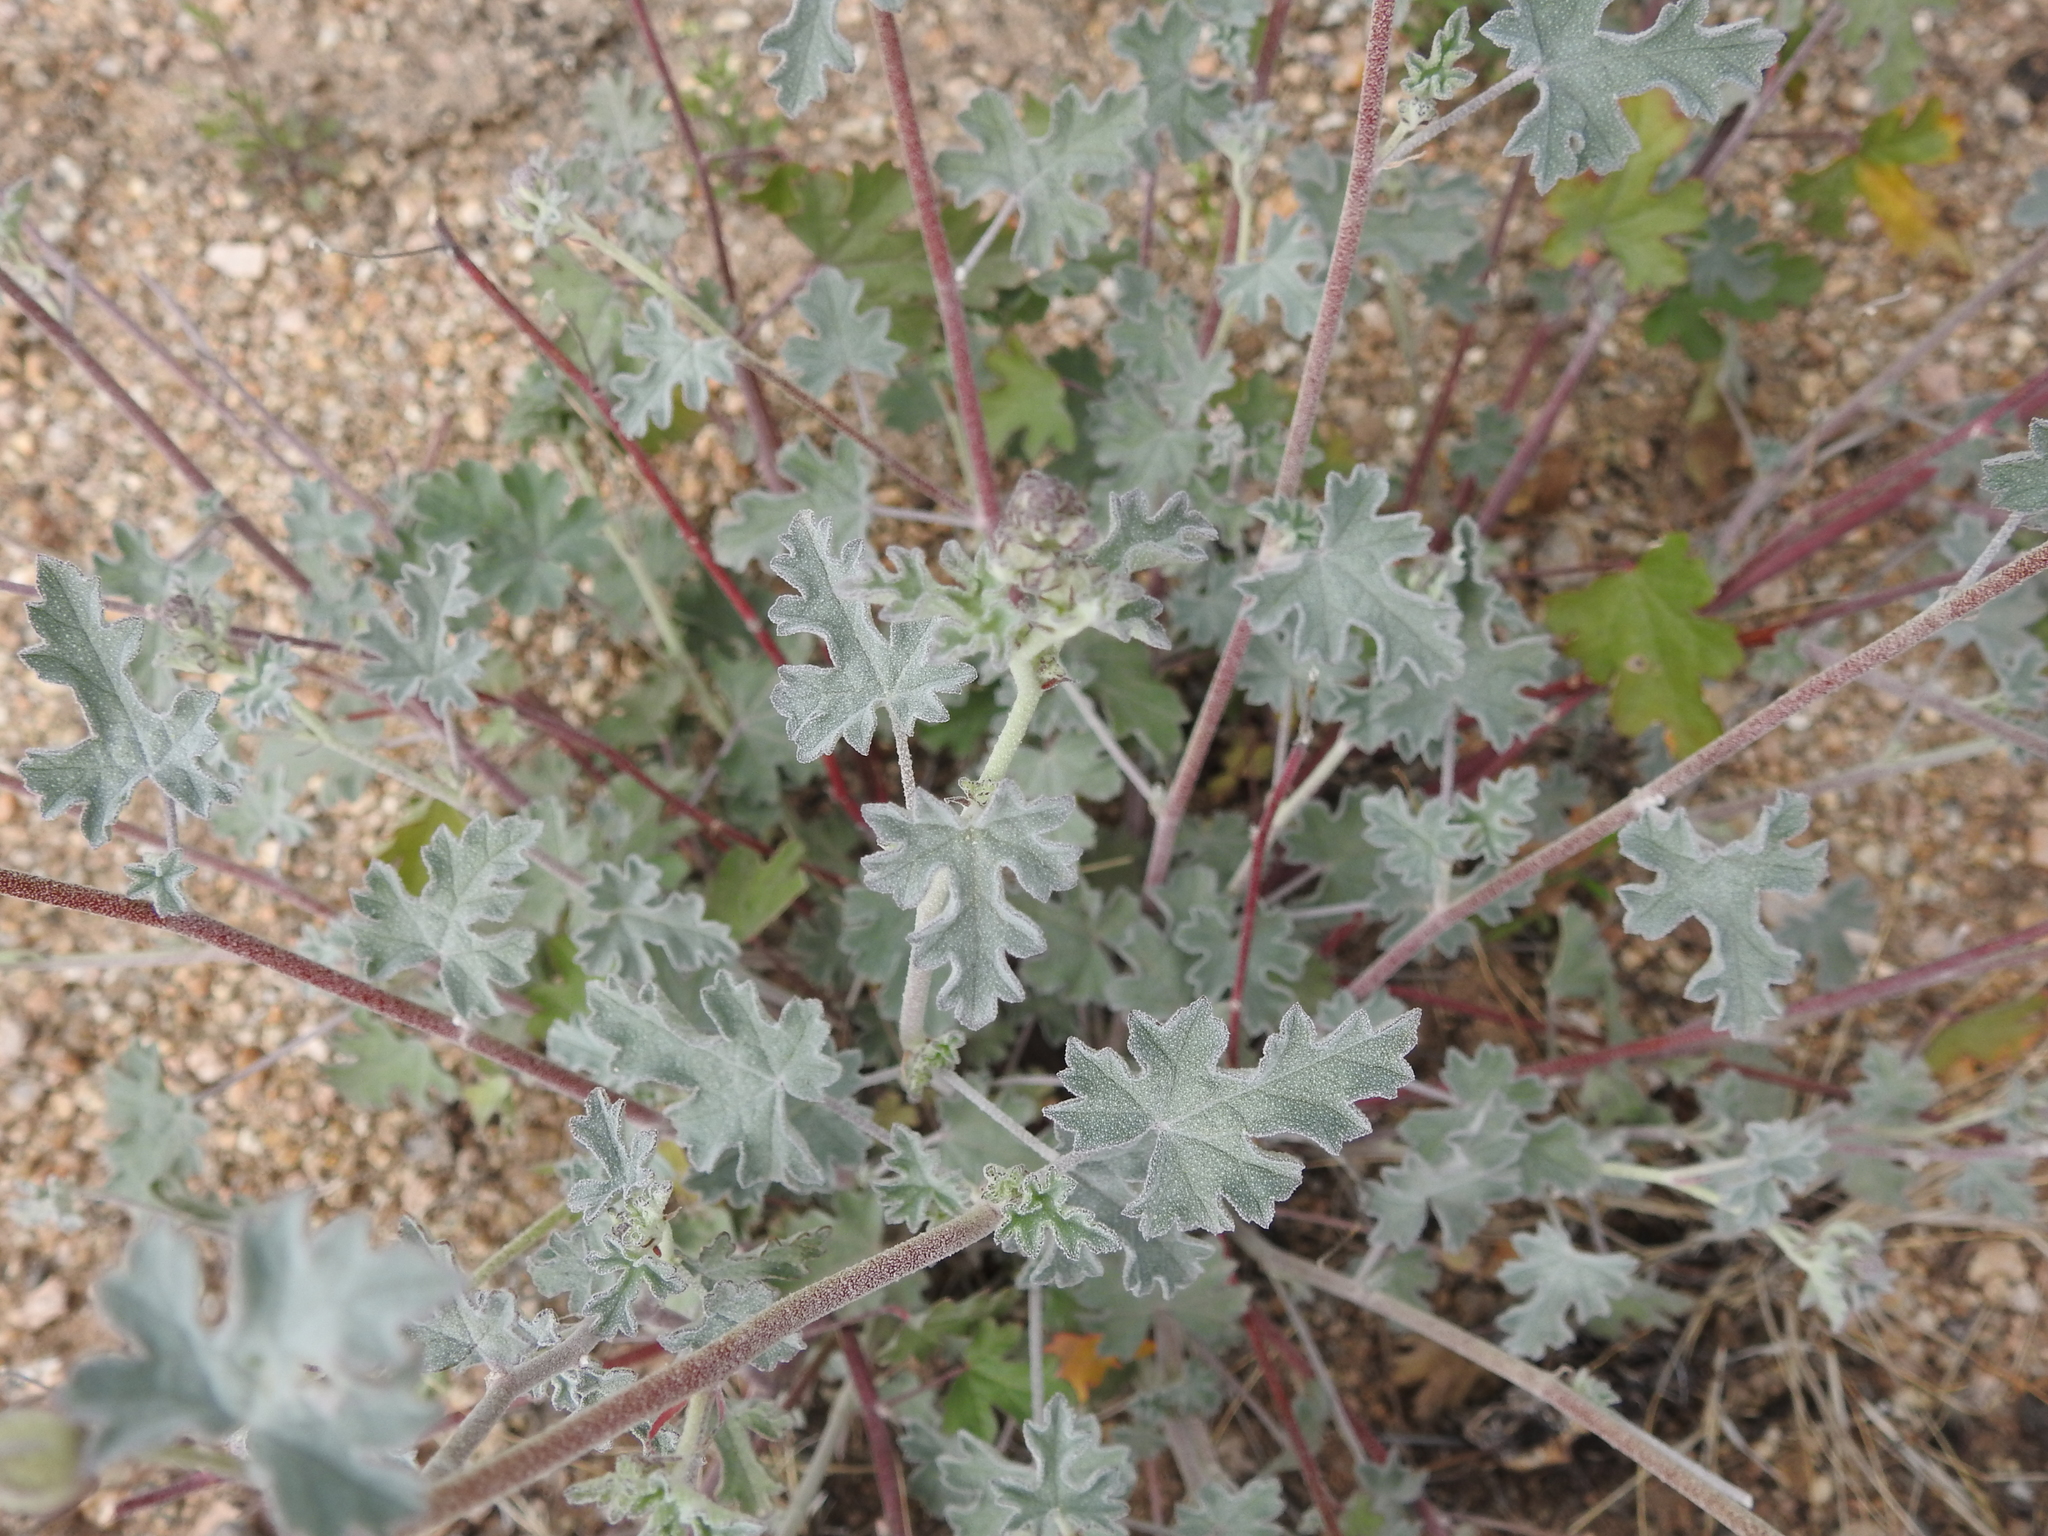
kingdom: Plantae
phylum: Tracheophyta
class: Magnoliopsida
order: Malvales
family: Malvaceae
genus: Sphaeralcea
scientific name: Sphaeralcea ambigua
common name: Apricot globe-mallow
